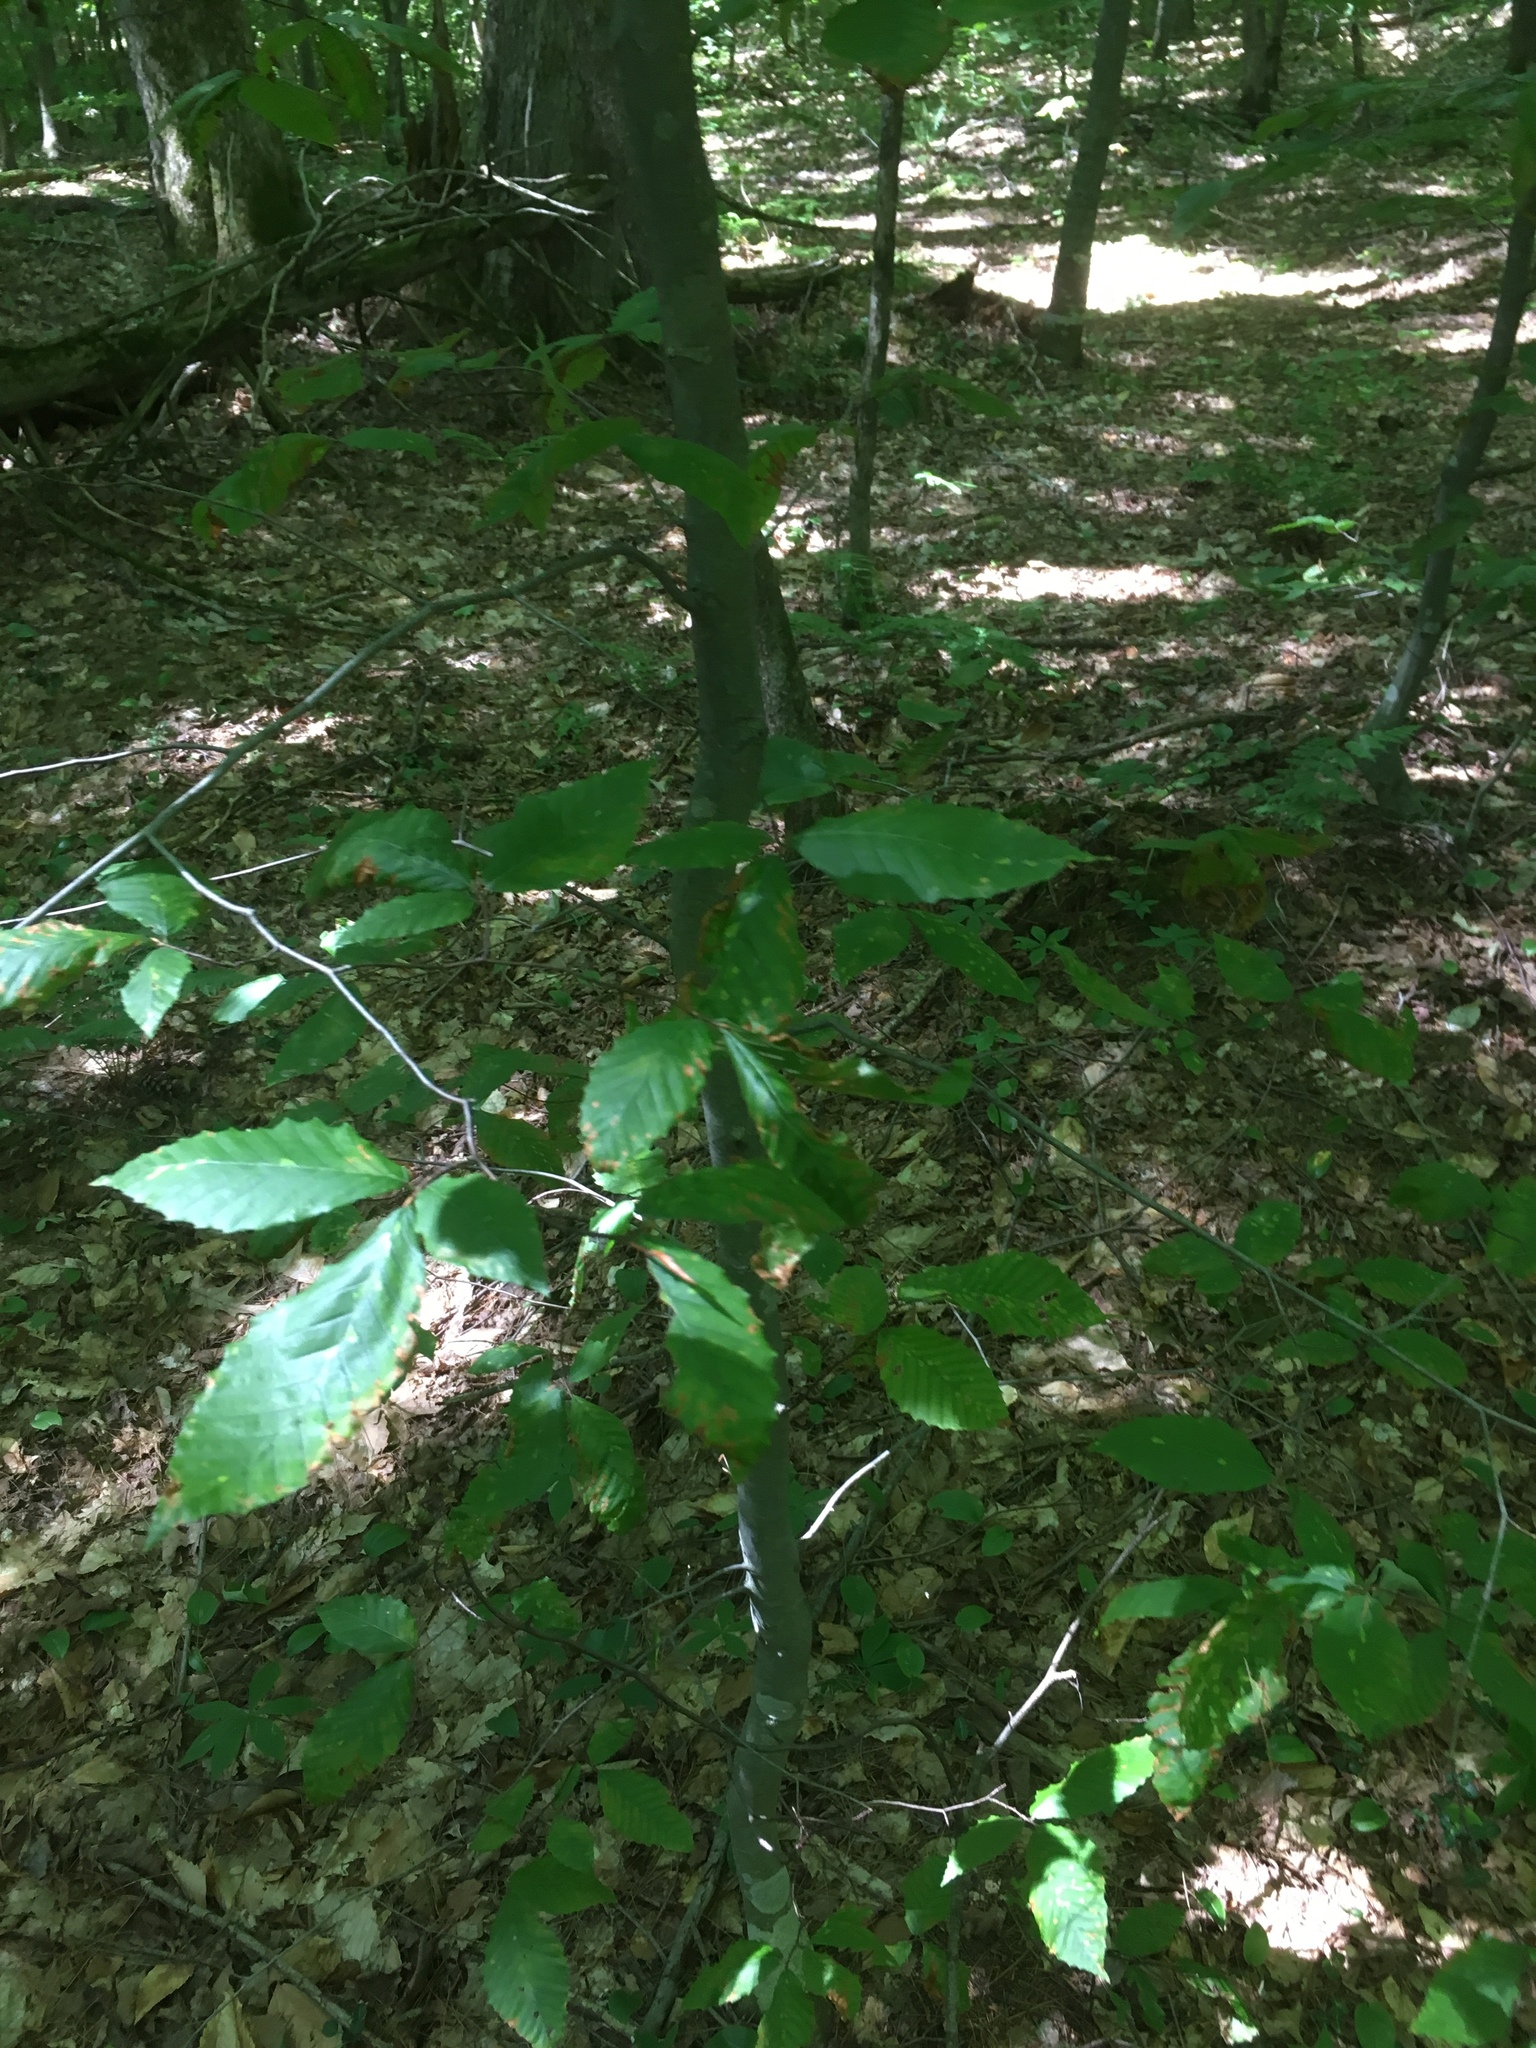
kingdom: Plantae
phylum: Tracheophyta
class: Magnoliopsida
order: Fagales
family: Fagaceae
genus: Fagus
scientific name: Fagus grandifolia
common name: American beech
